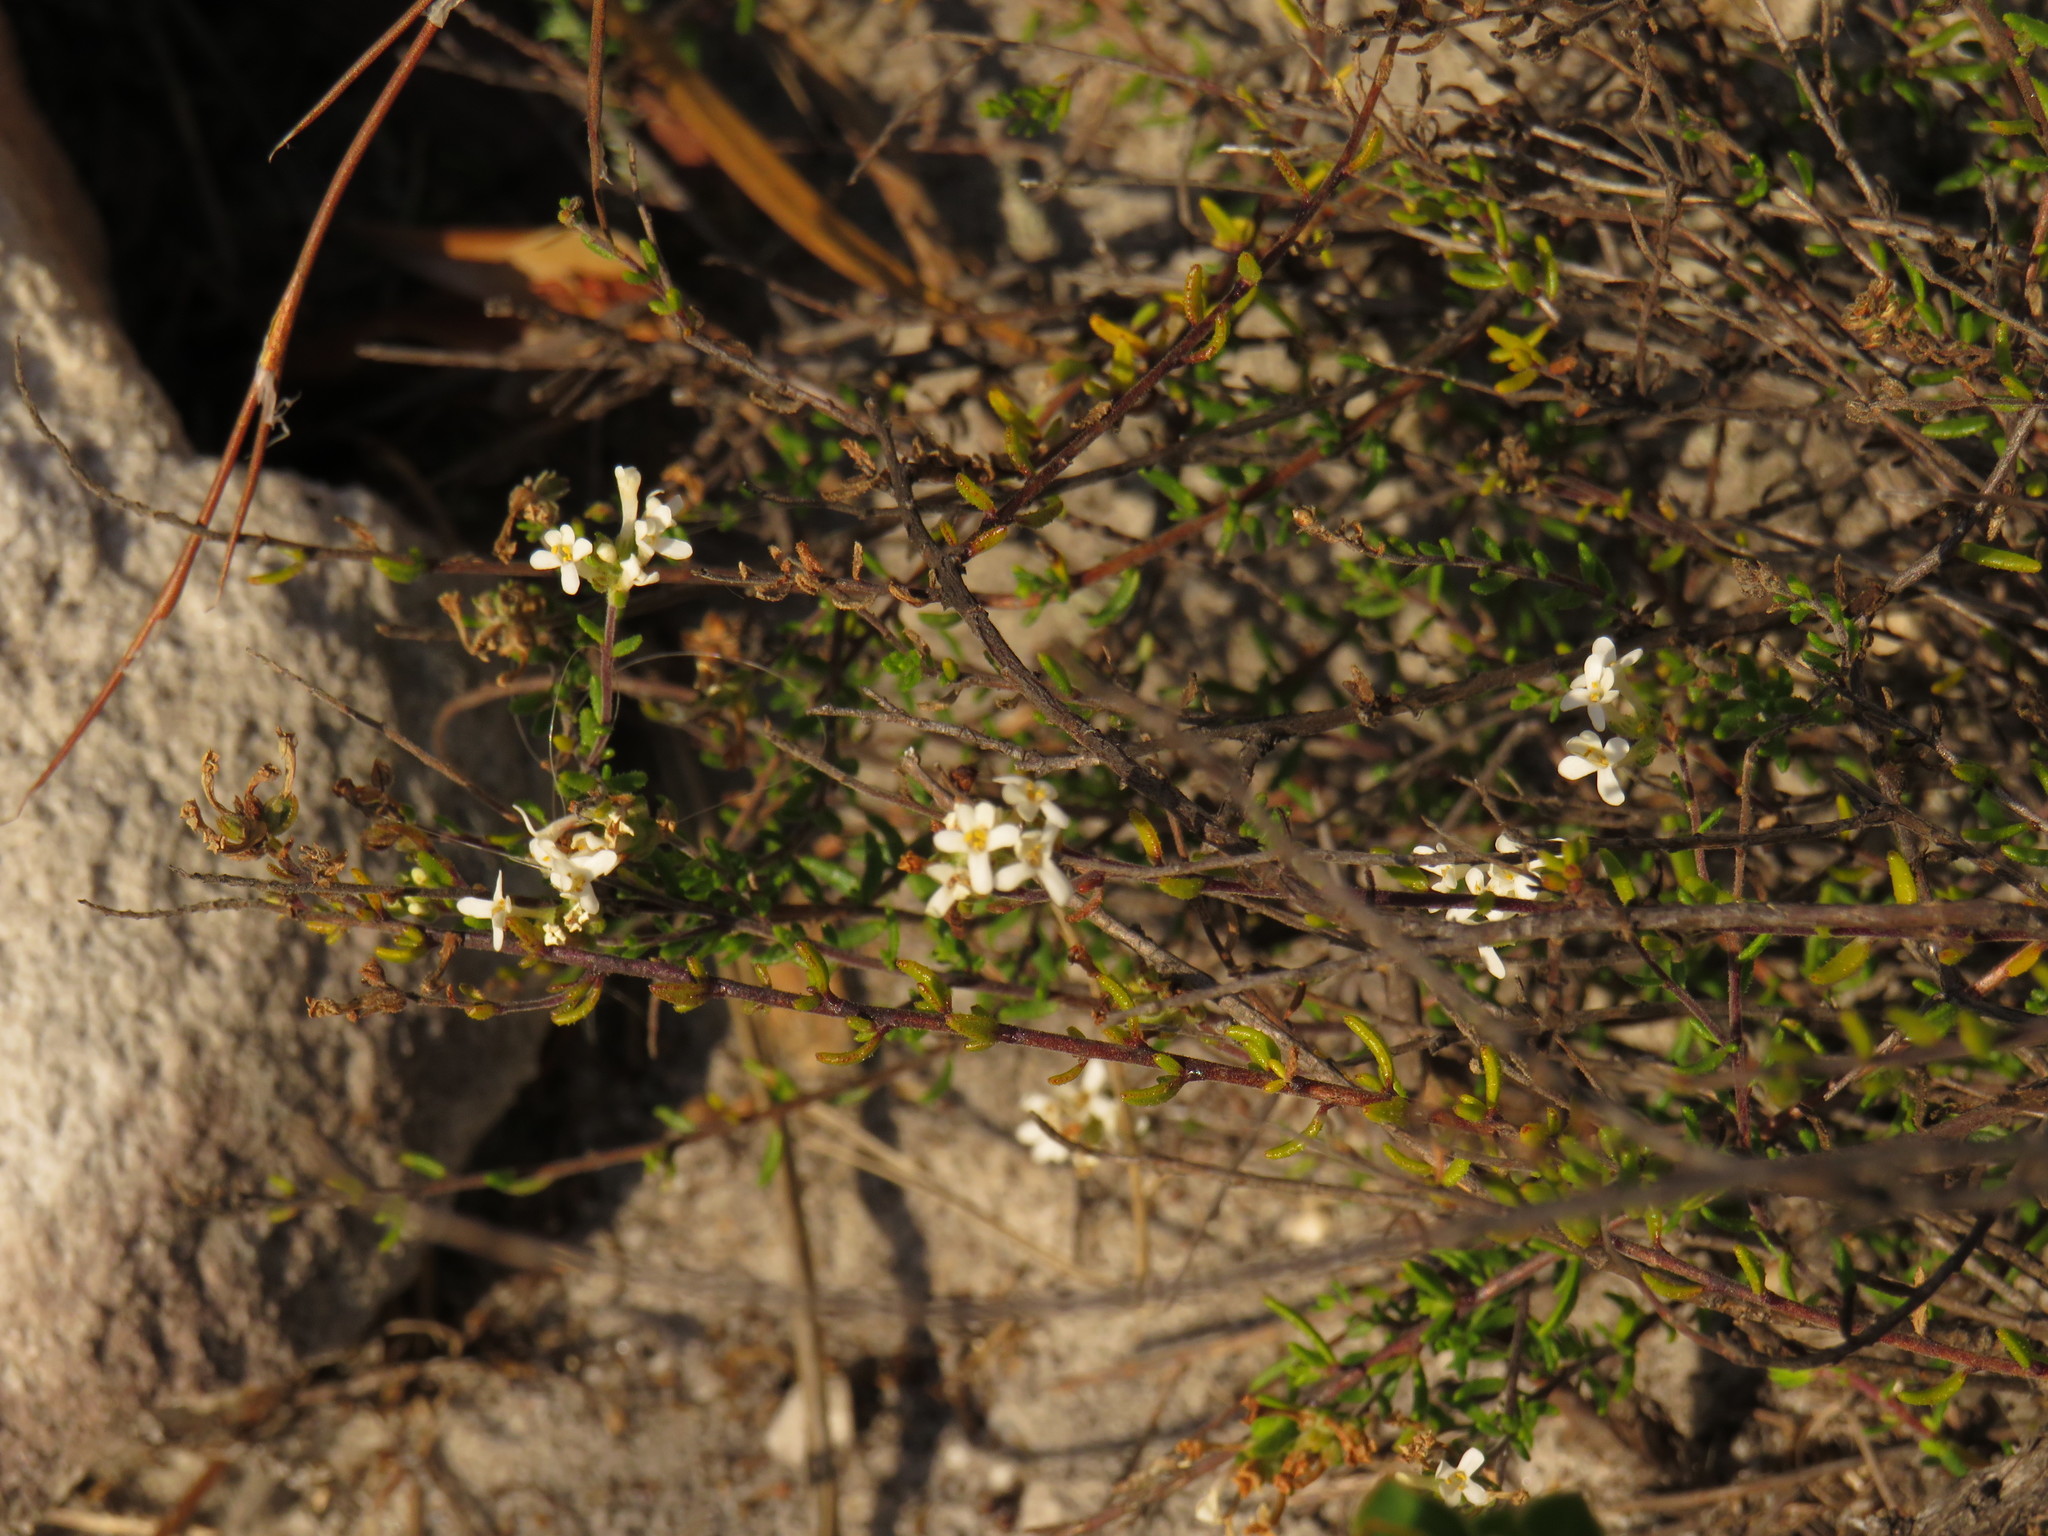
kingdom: Plantae
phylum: Tracheophyta
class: Magnoliopsida
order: Lamiales
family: Scrophulariaceae
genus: Selago
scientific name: Selago levynsiae
